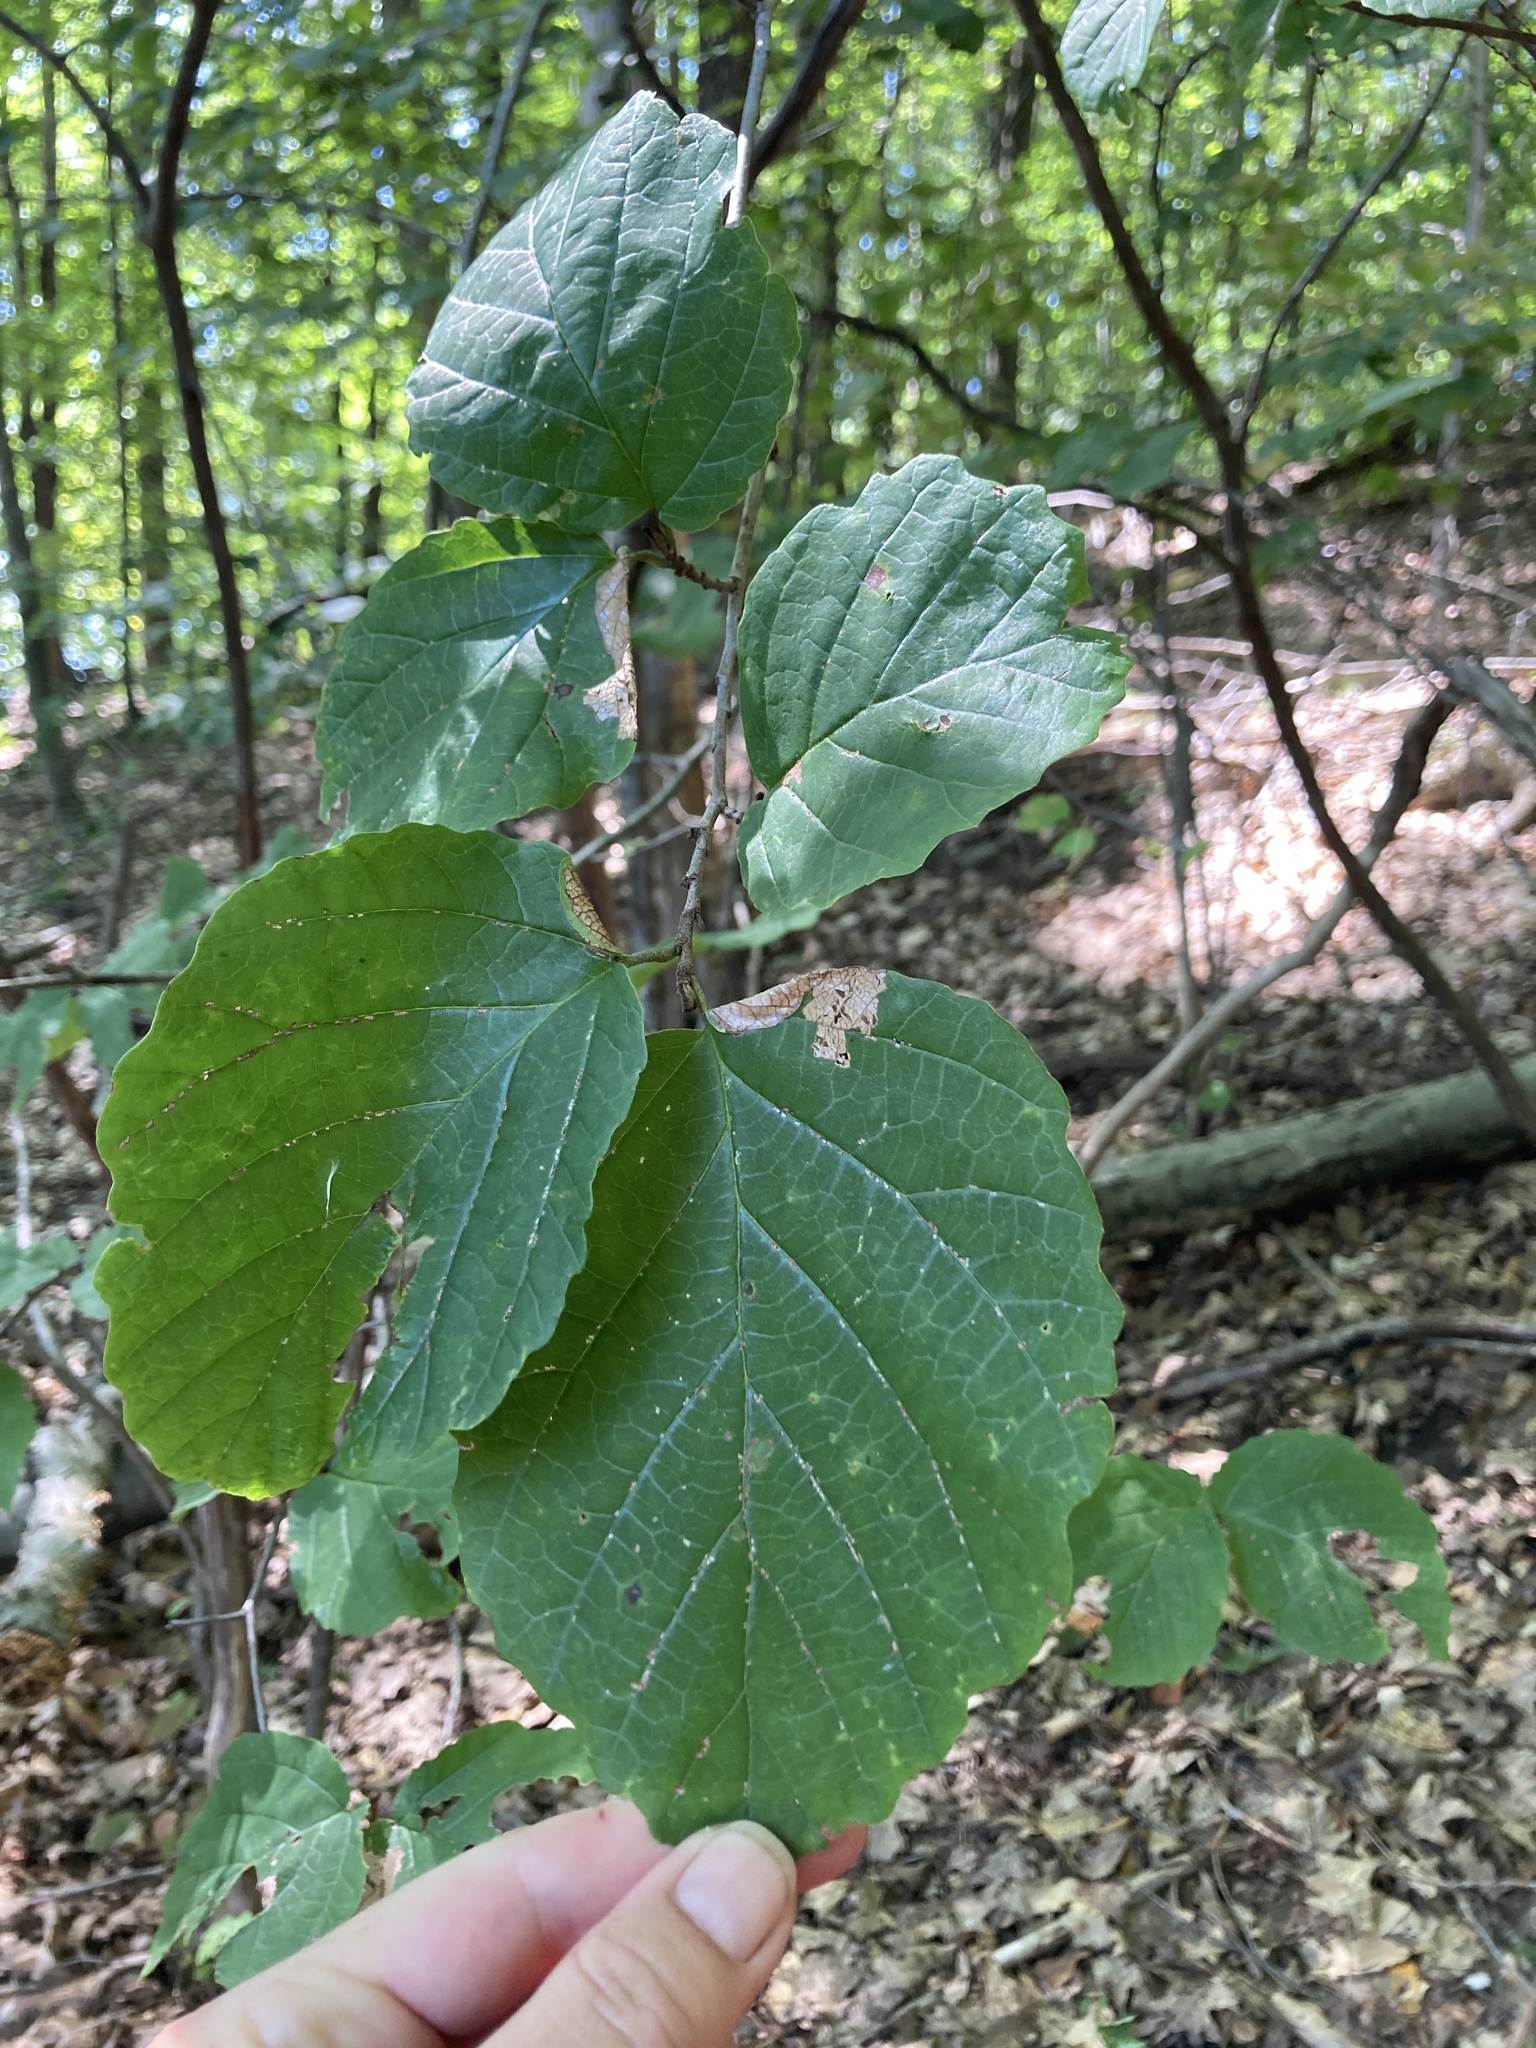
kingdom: Plantae
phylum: Tracheophyta
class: Magnoliopsida
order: Saxifragales
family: Hamamelidaceae
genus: Hamamelis
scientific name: Hamamelis virginiana
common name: Witch-hazel
